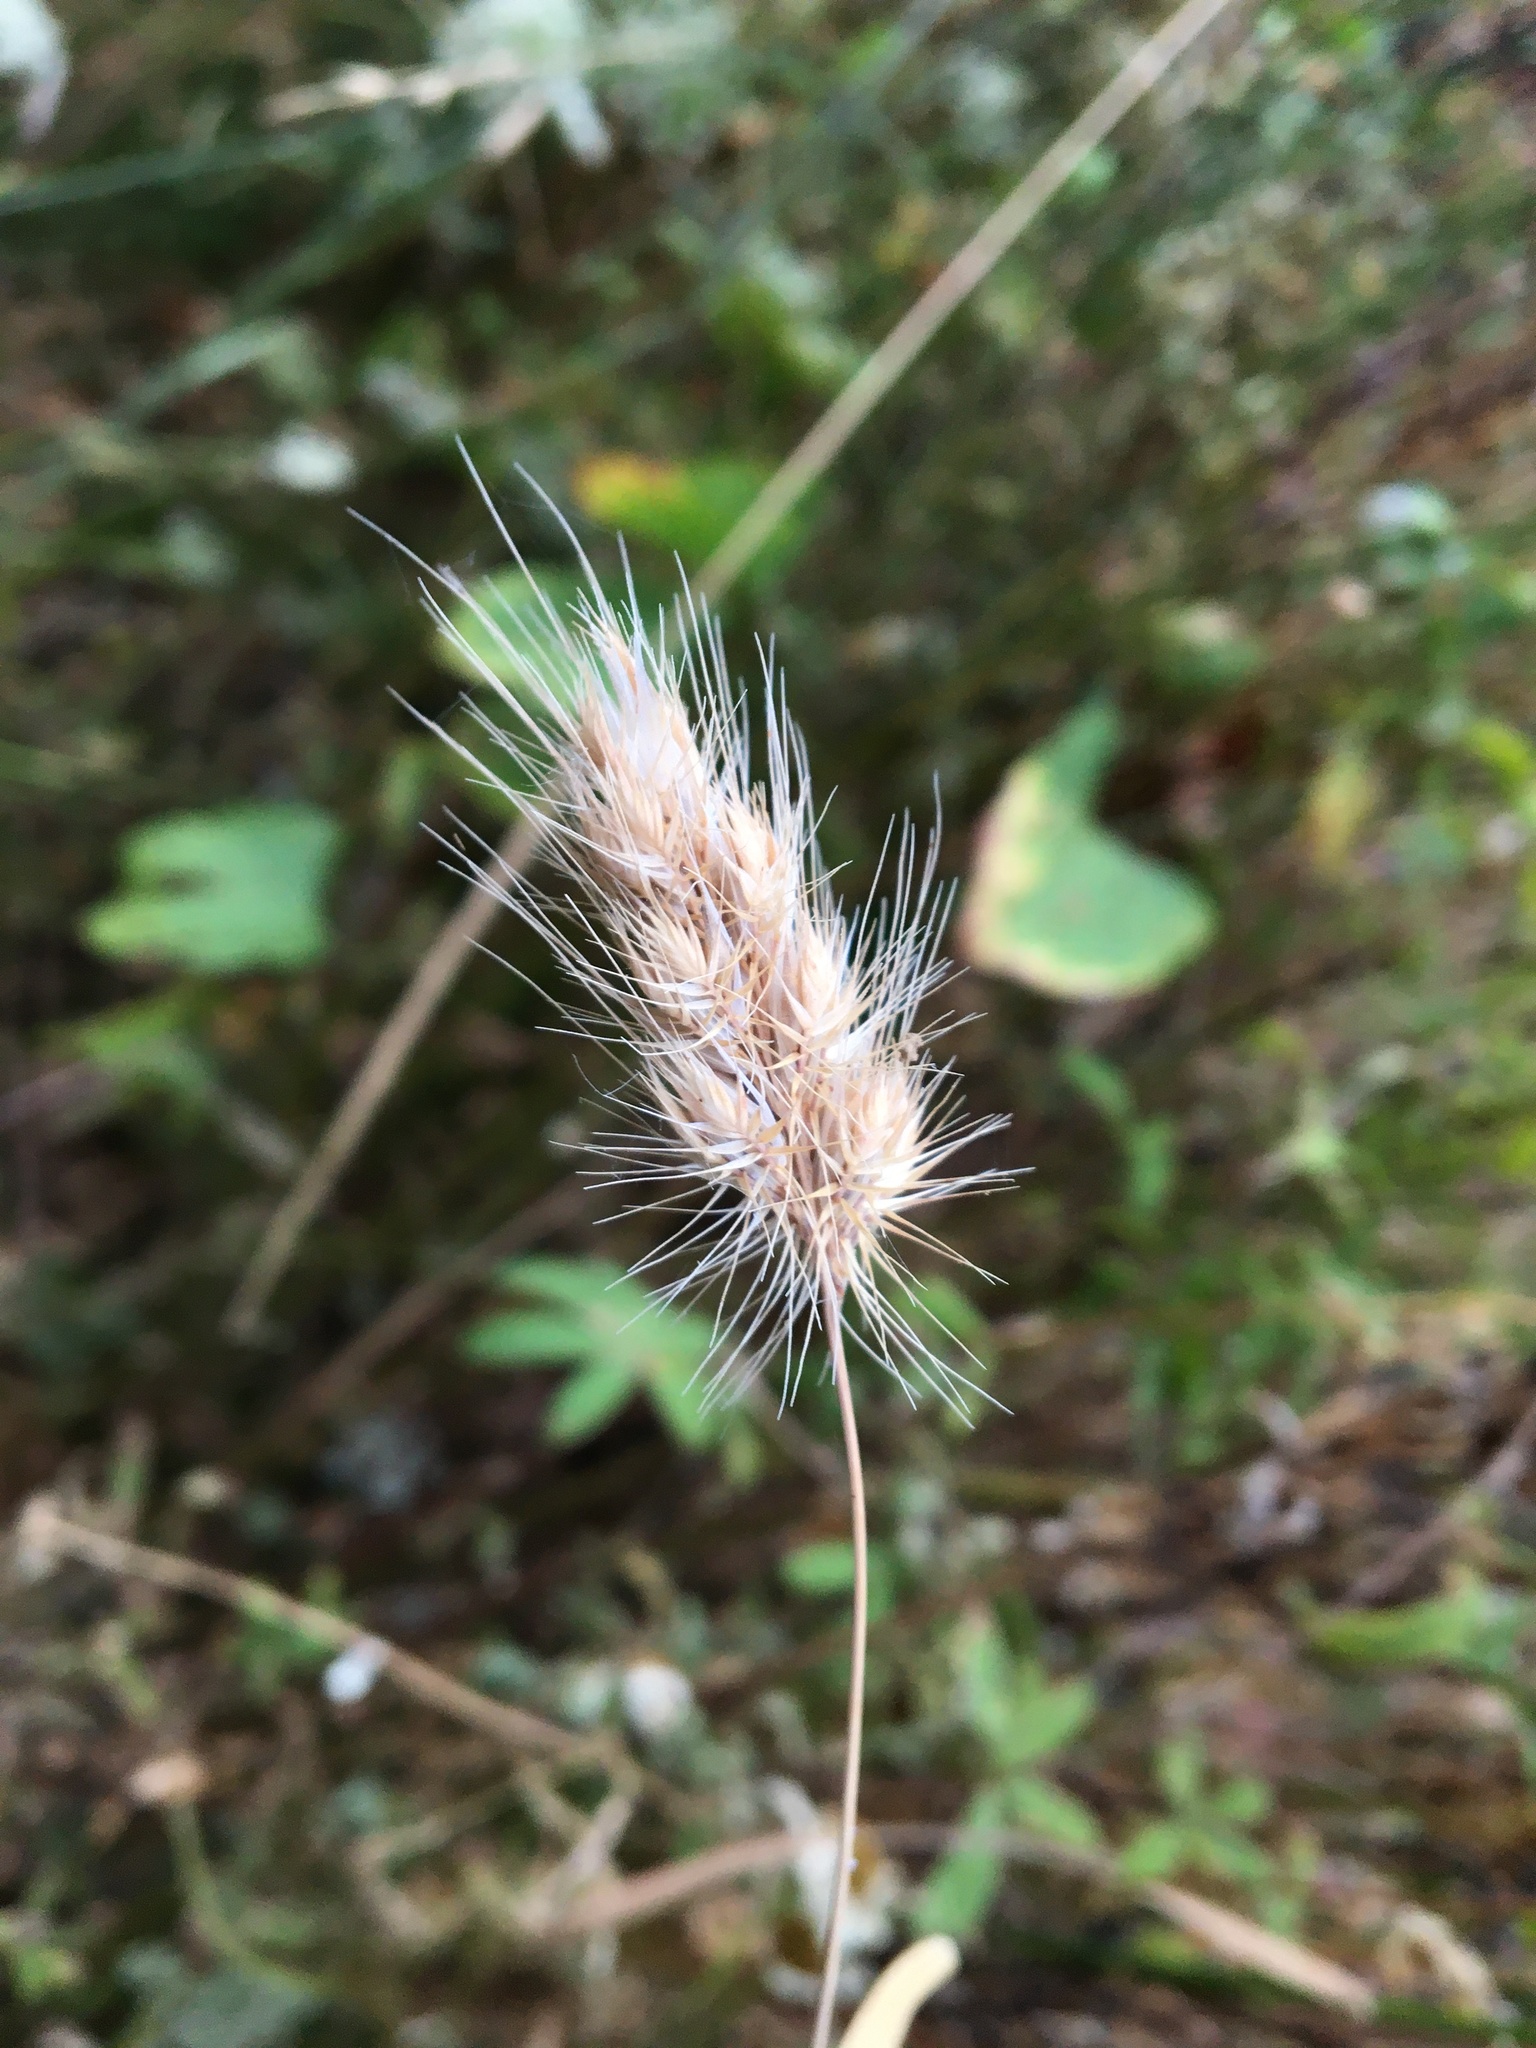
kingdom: Plantae
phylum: Tracheophyta
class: Liliopsida
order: Poales
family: Poaceae
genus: Cynosurus
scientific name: Cynosurus echinatus
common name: Rough dog's-tail
